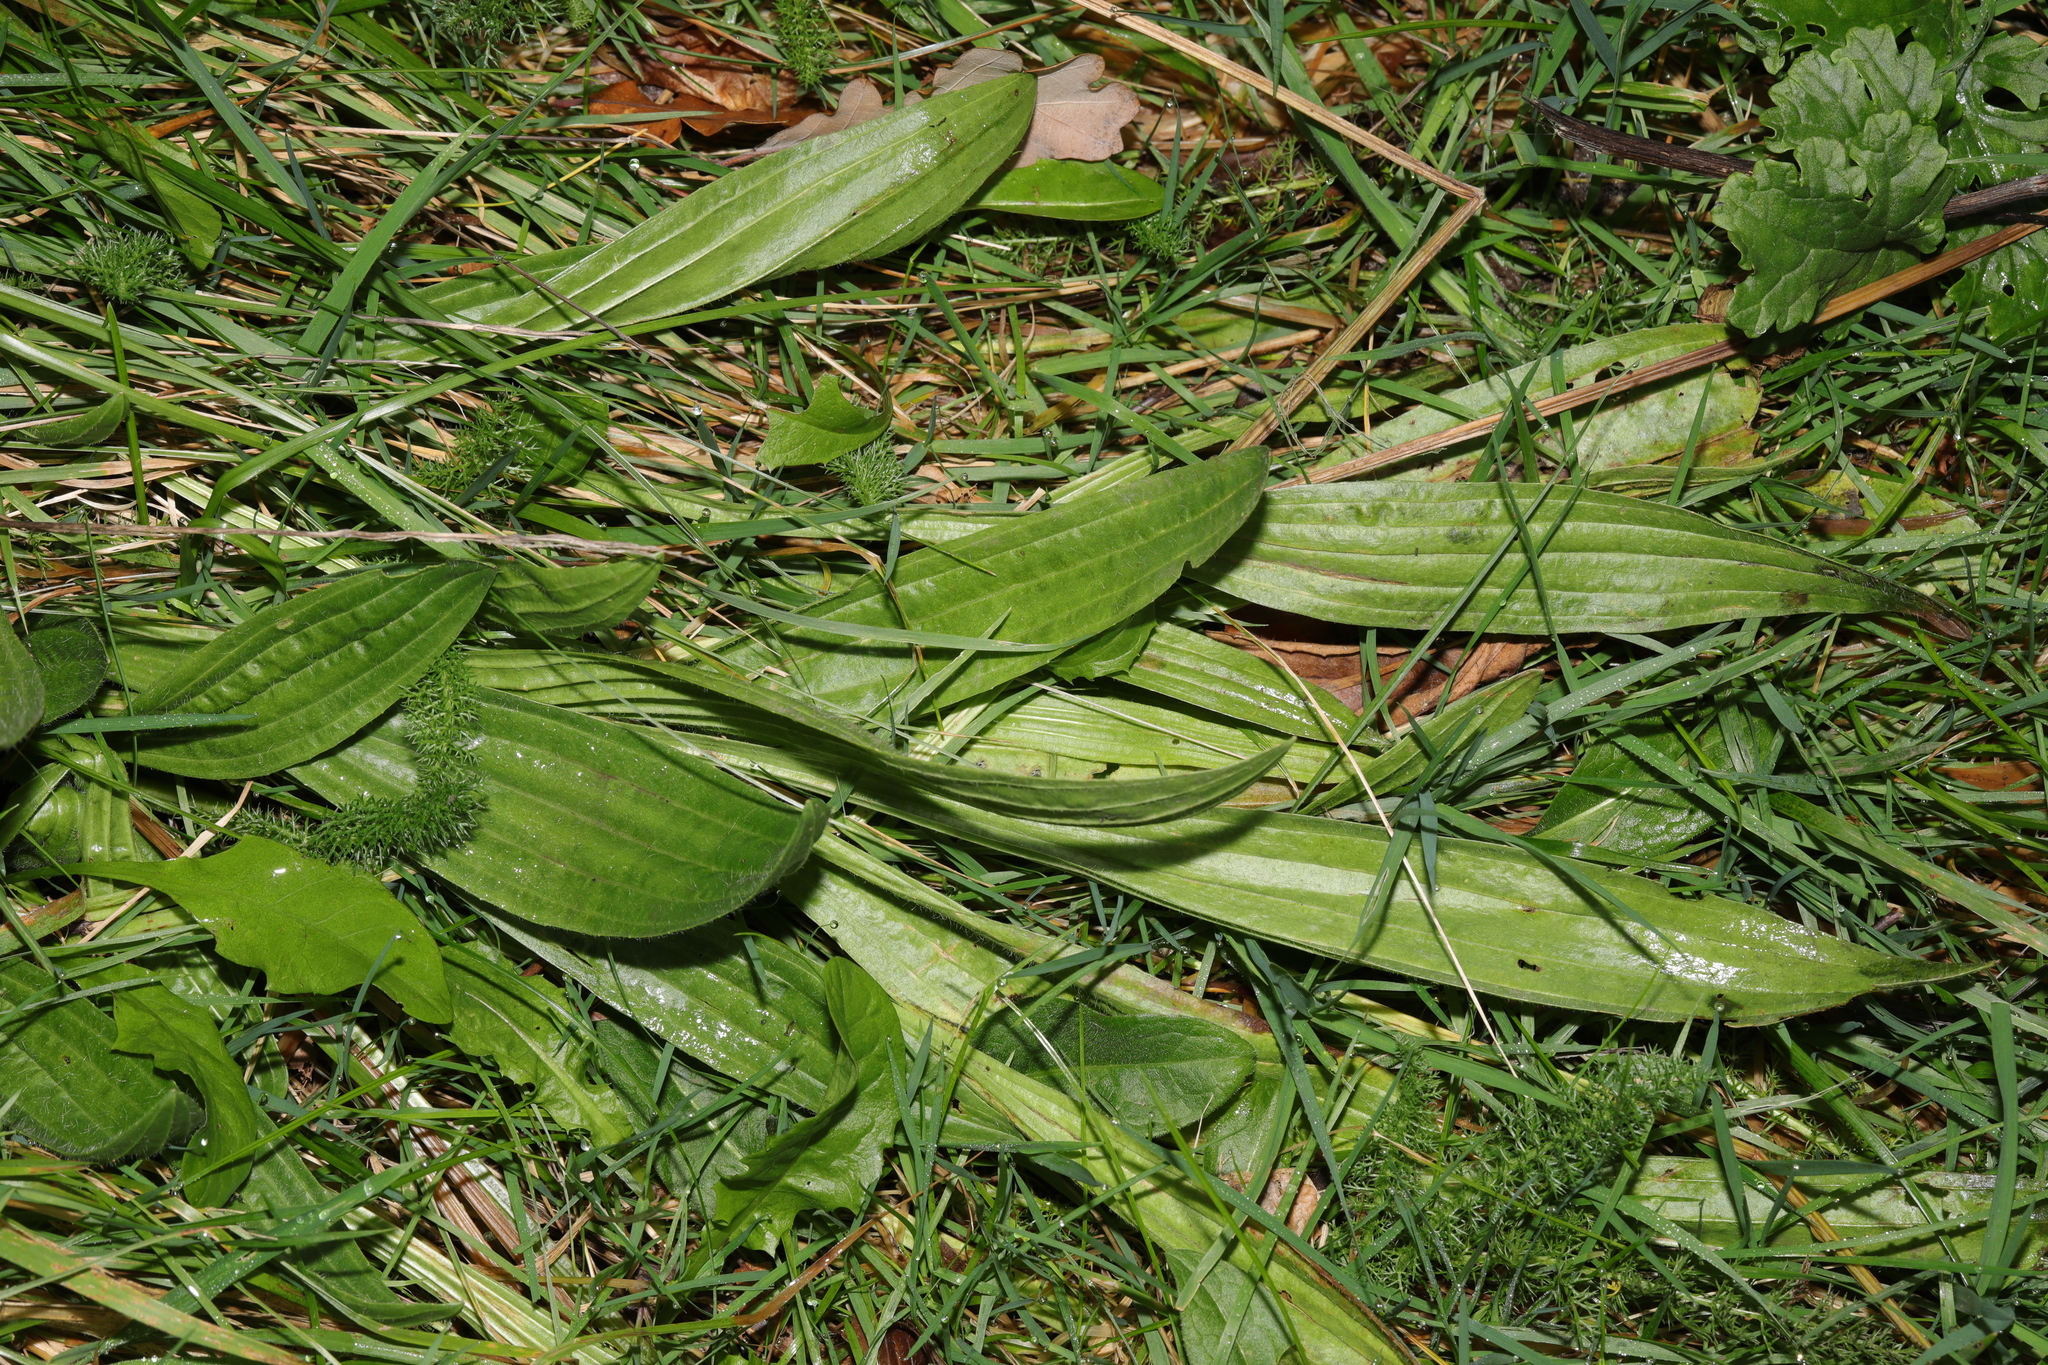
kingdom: Plantae
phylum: Tracheophyta
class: Magnoliopsida
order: Lamiales
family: Plantaginaceae
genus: Plantago
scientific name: Plantago lanceolata
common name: Ribwort plantain
